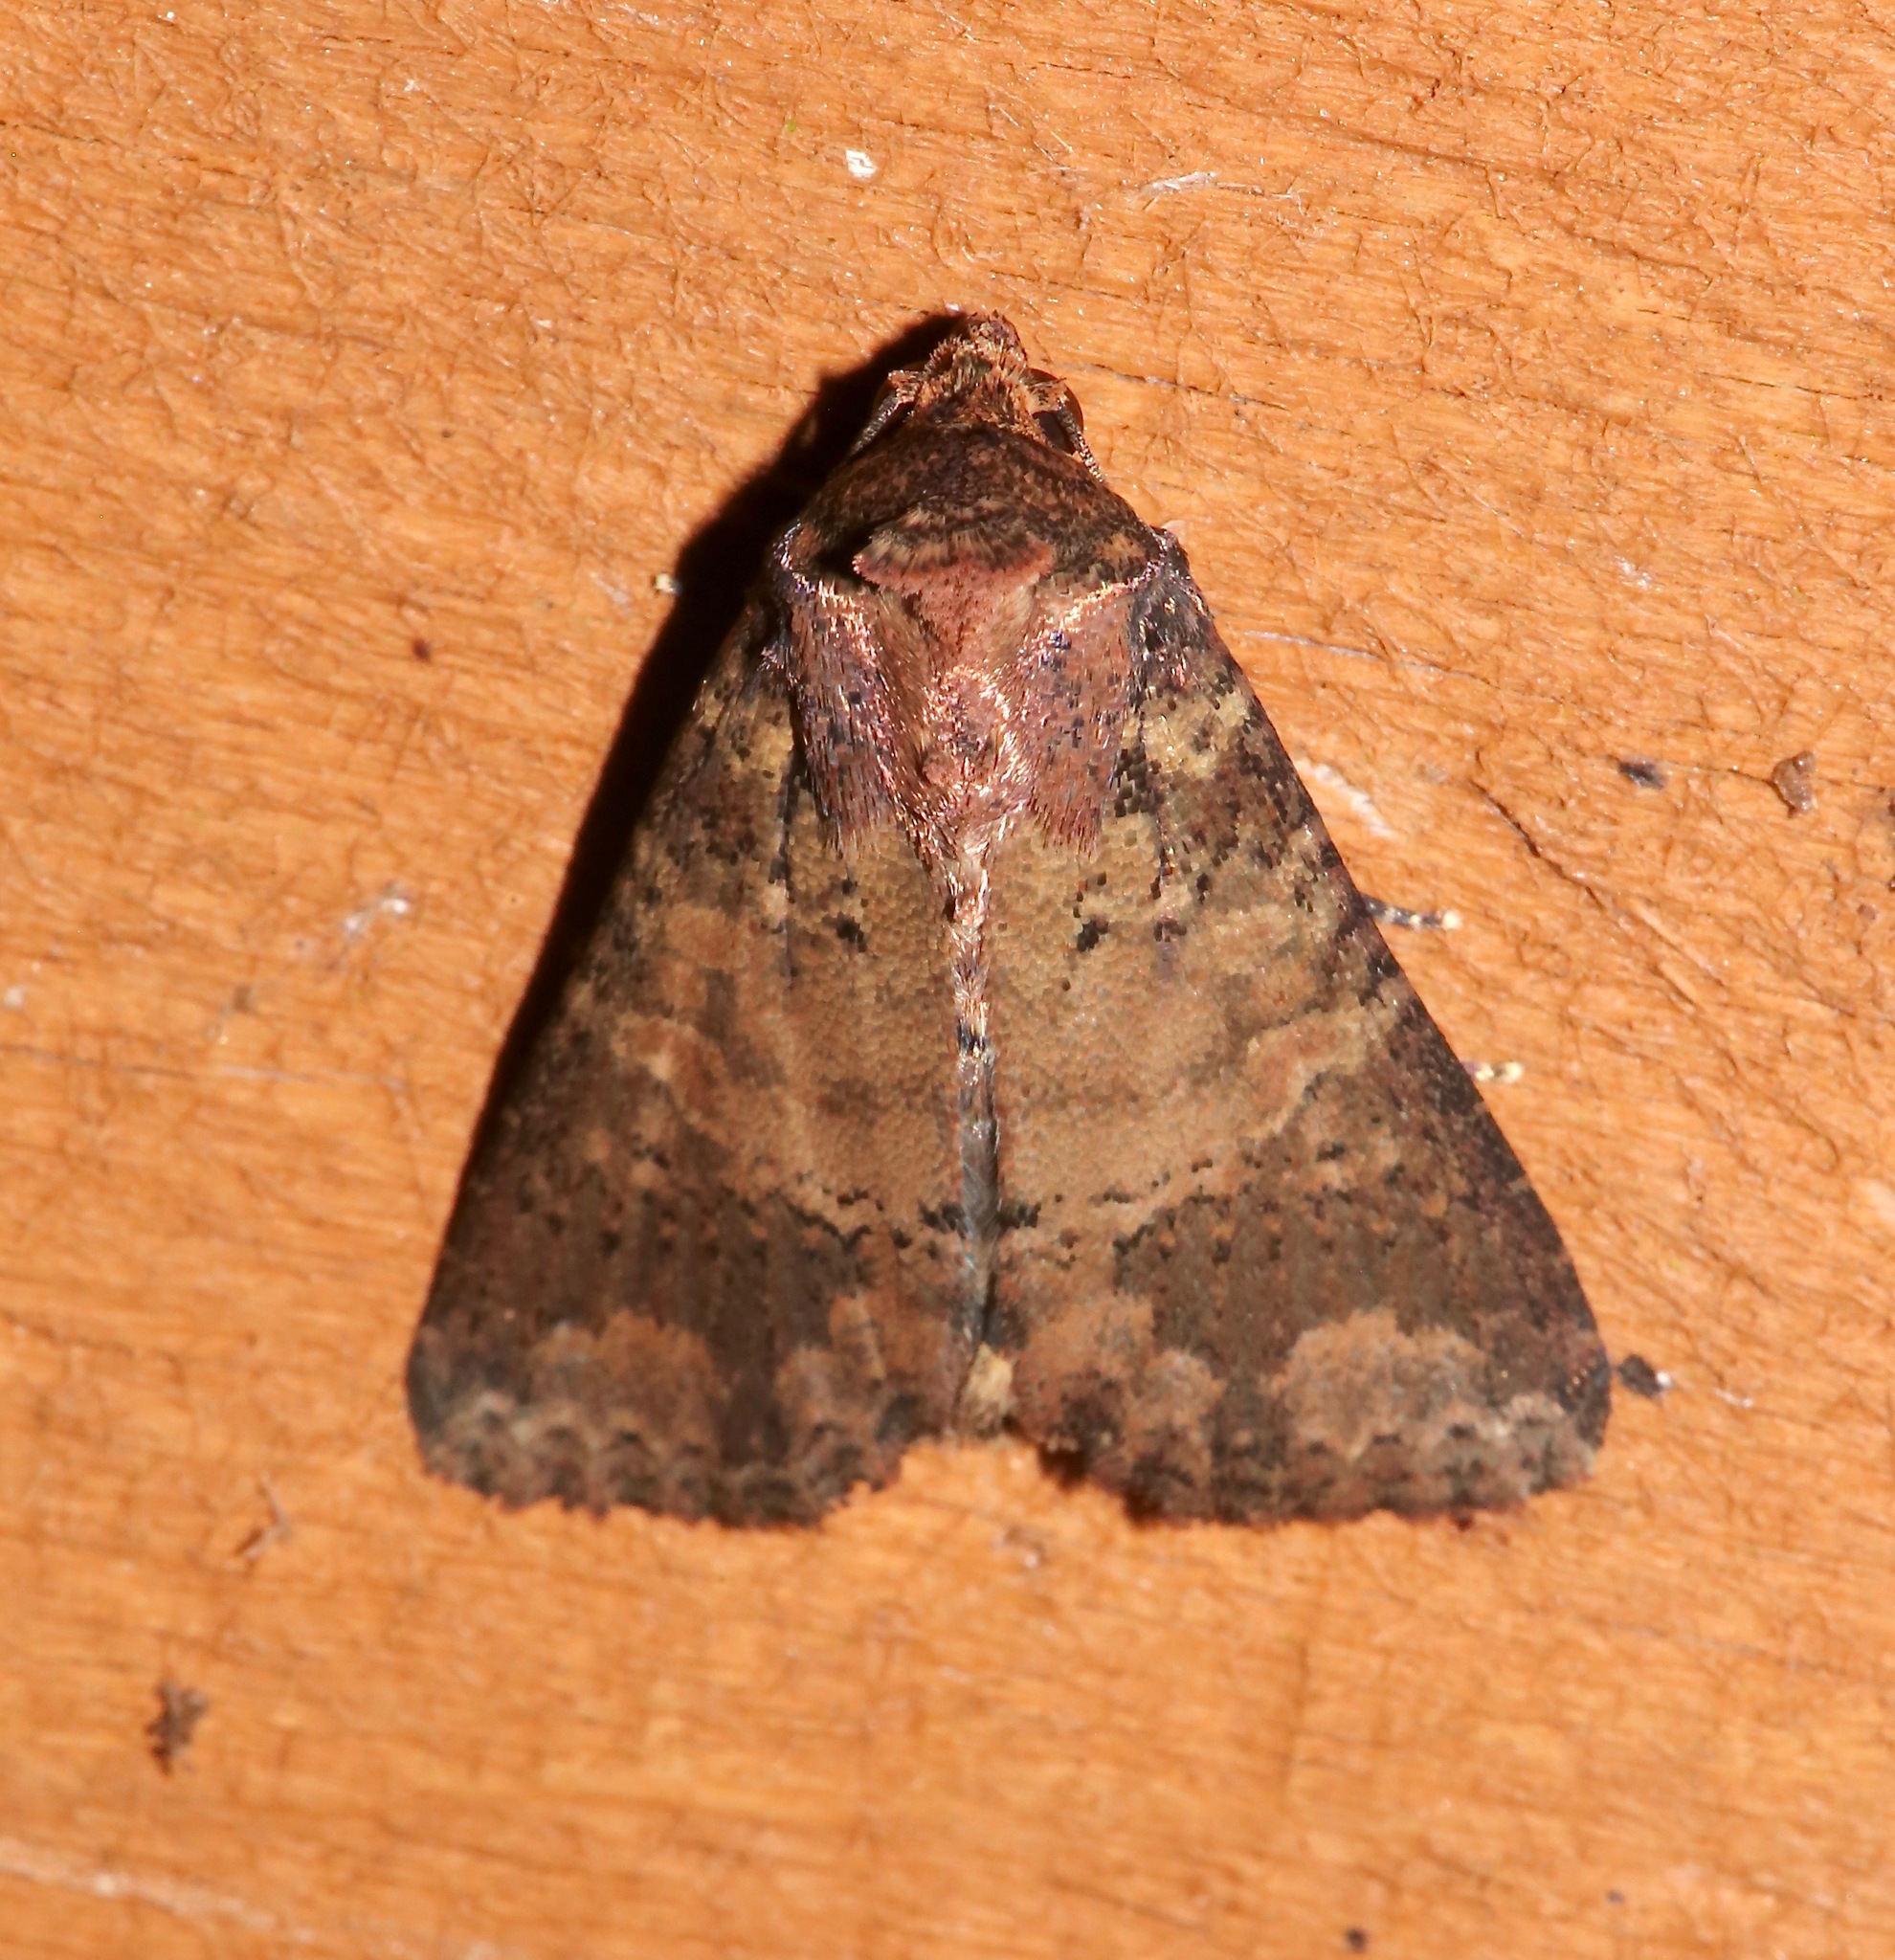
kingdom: Animalia
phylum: Arthropoda
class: Insecta
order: Lepidoptera
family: Noctuidae
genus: Condica
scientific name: Condica cupentia
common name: Splotched groundling
